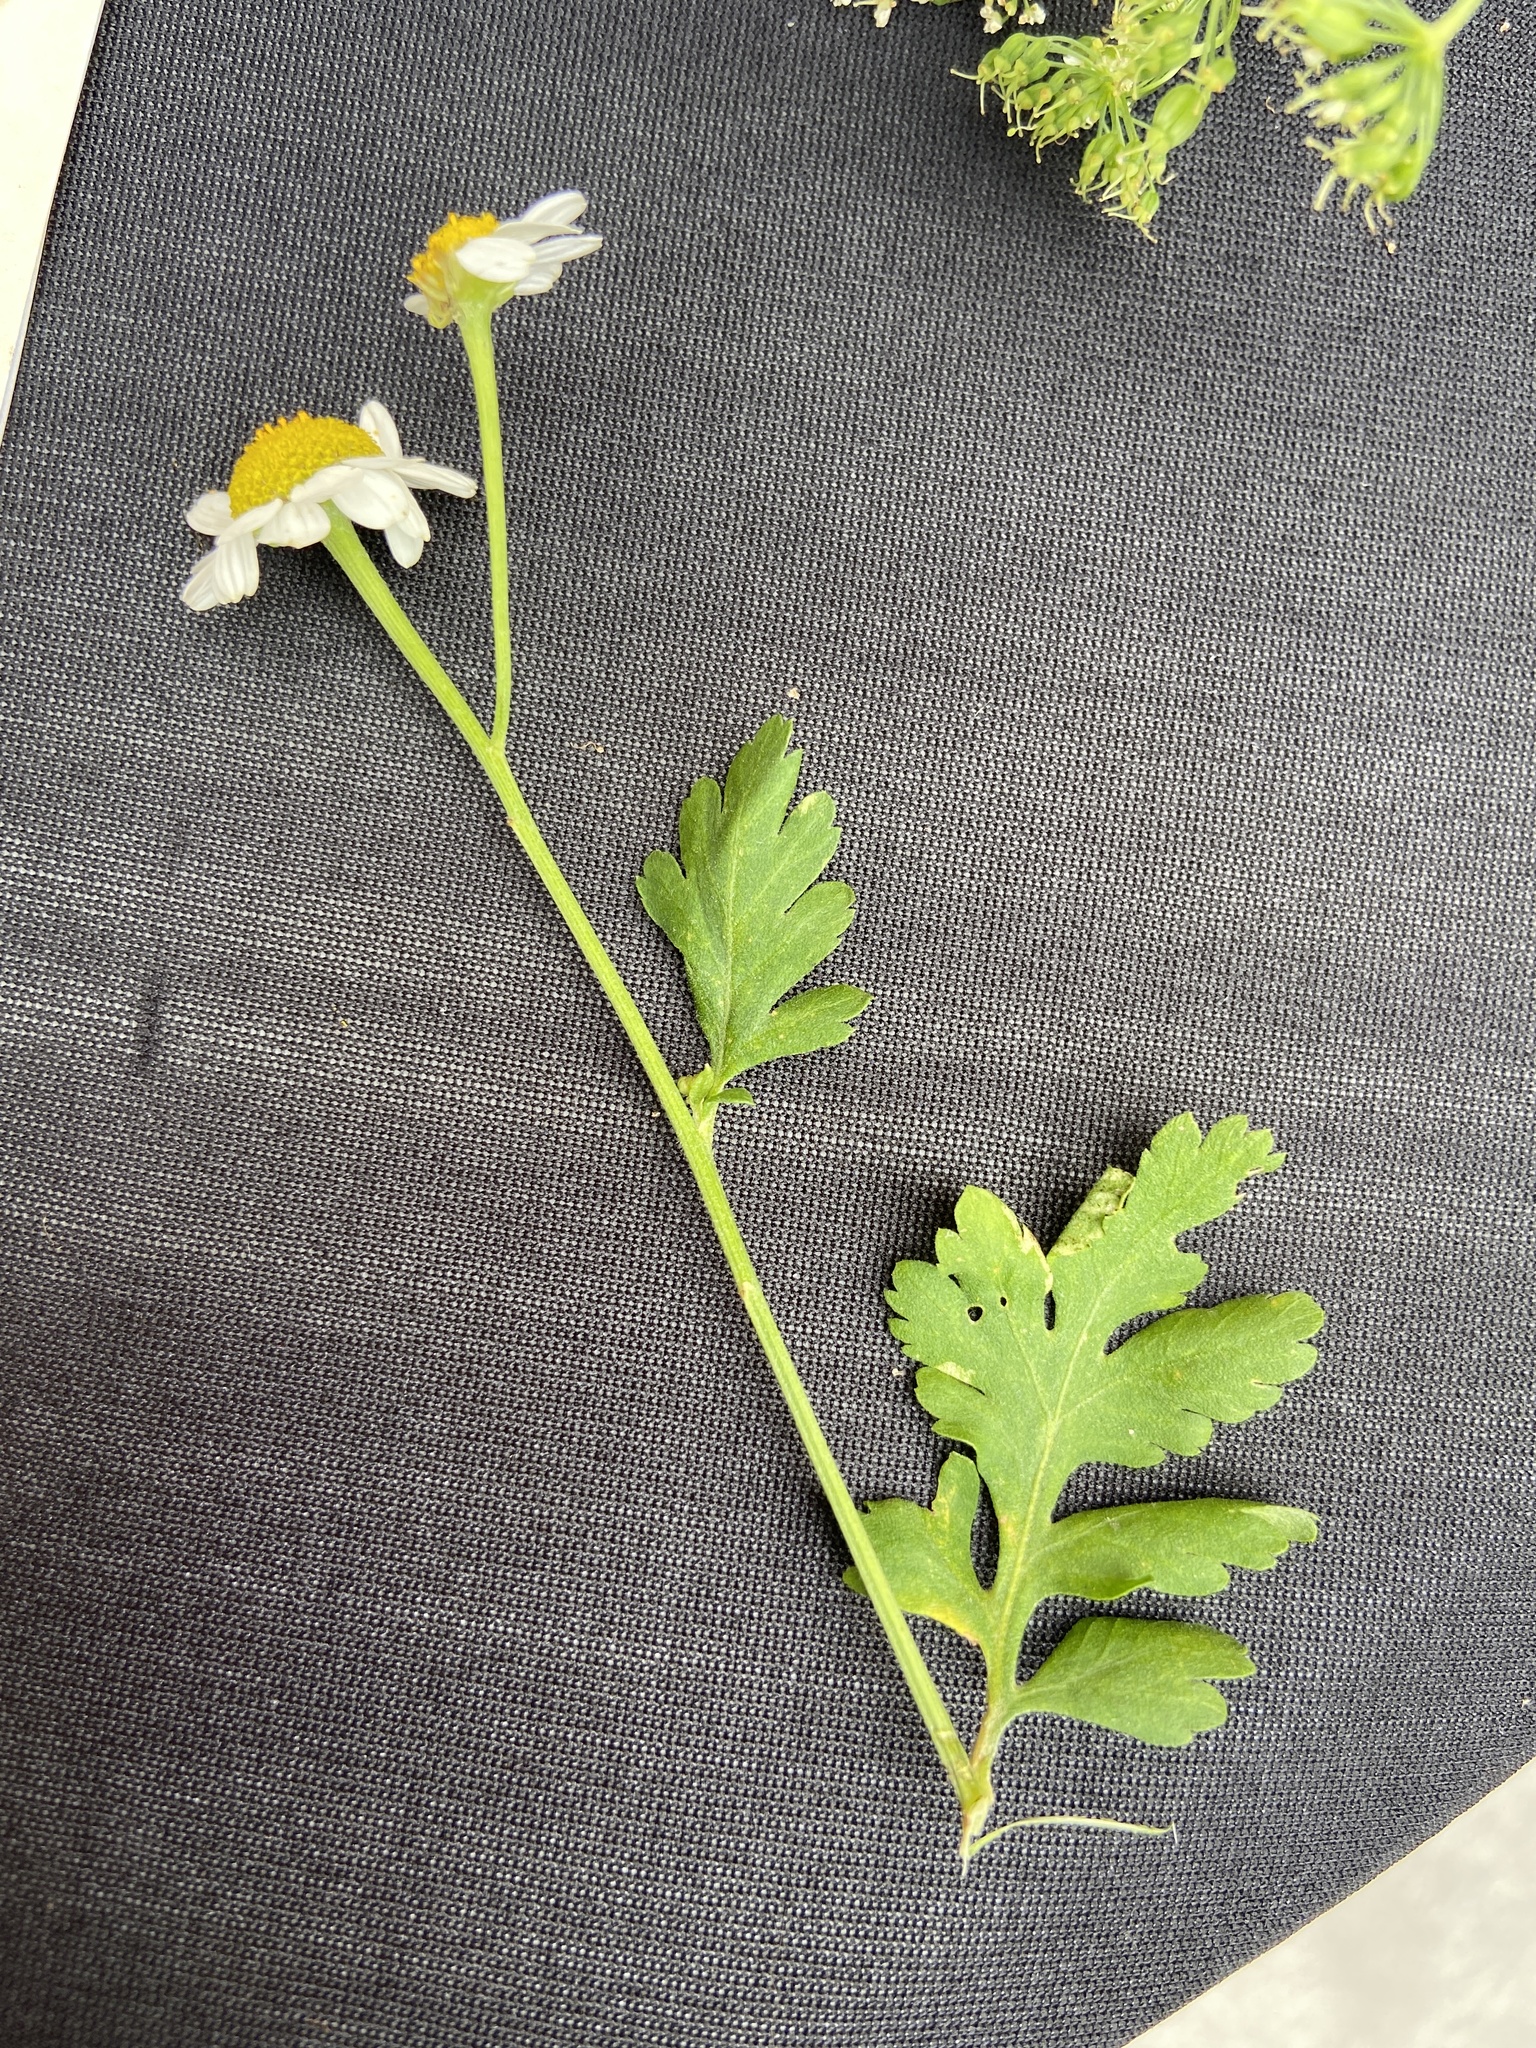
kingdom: Plantae
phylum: Tracheophyta
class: Magnoliopsida
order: Asterales
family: Asteraceae
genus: Tanacetum
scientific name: Tanacetum parthenium
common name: Feverfew
